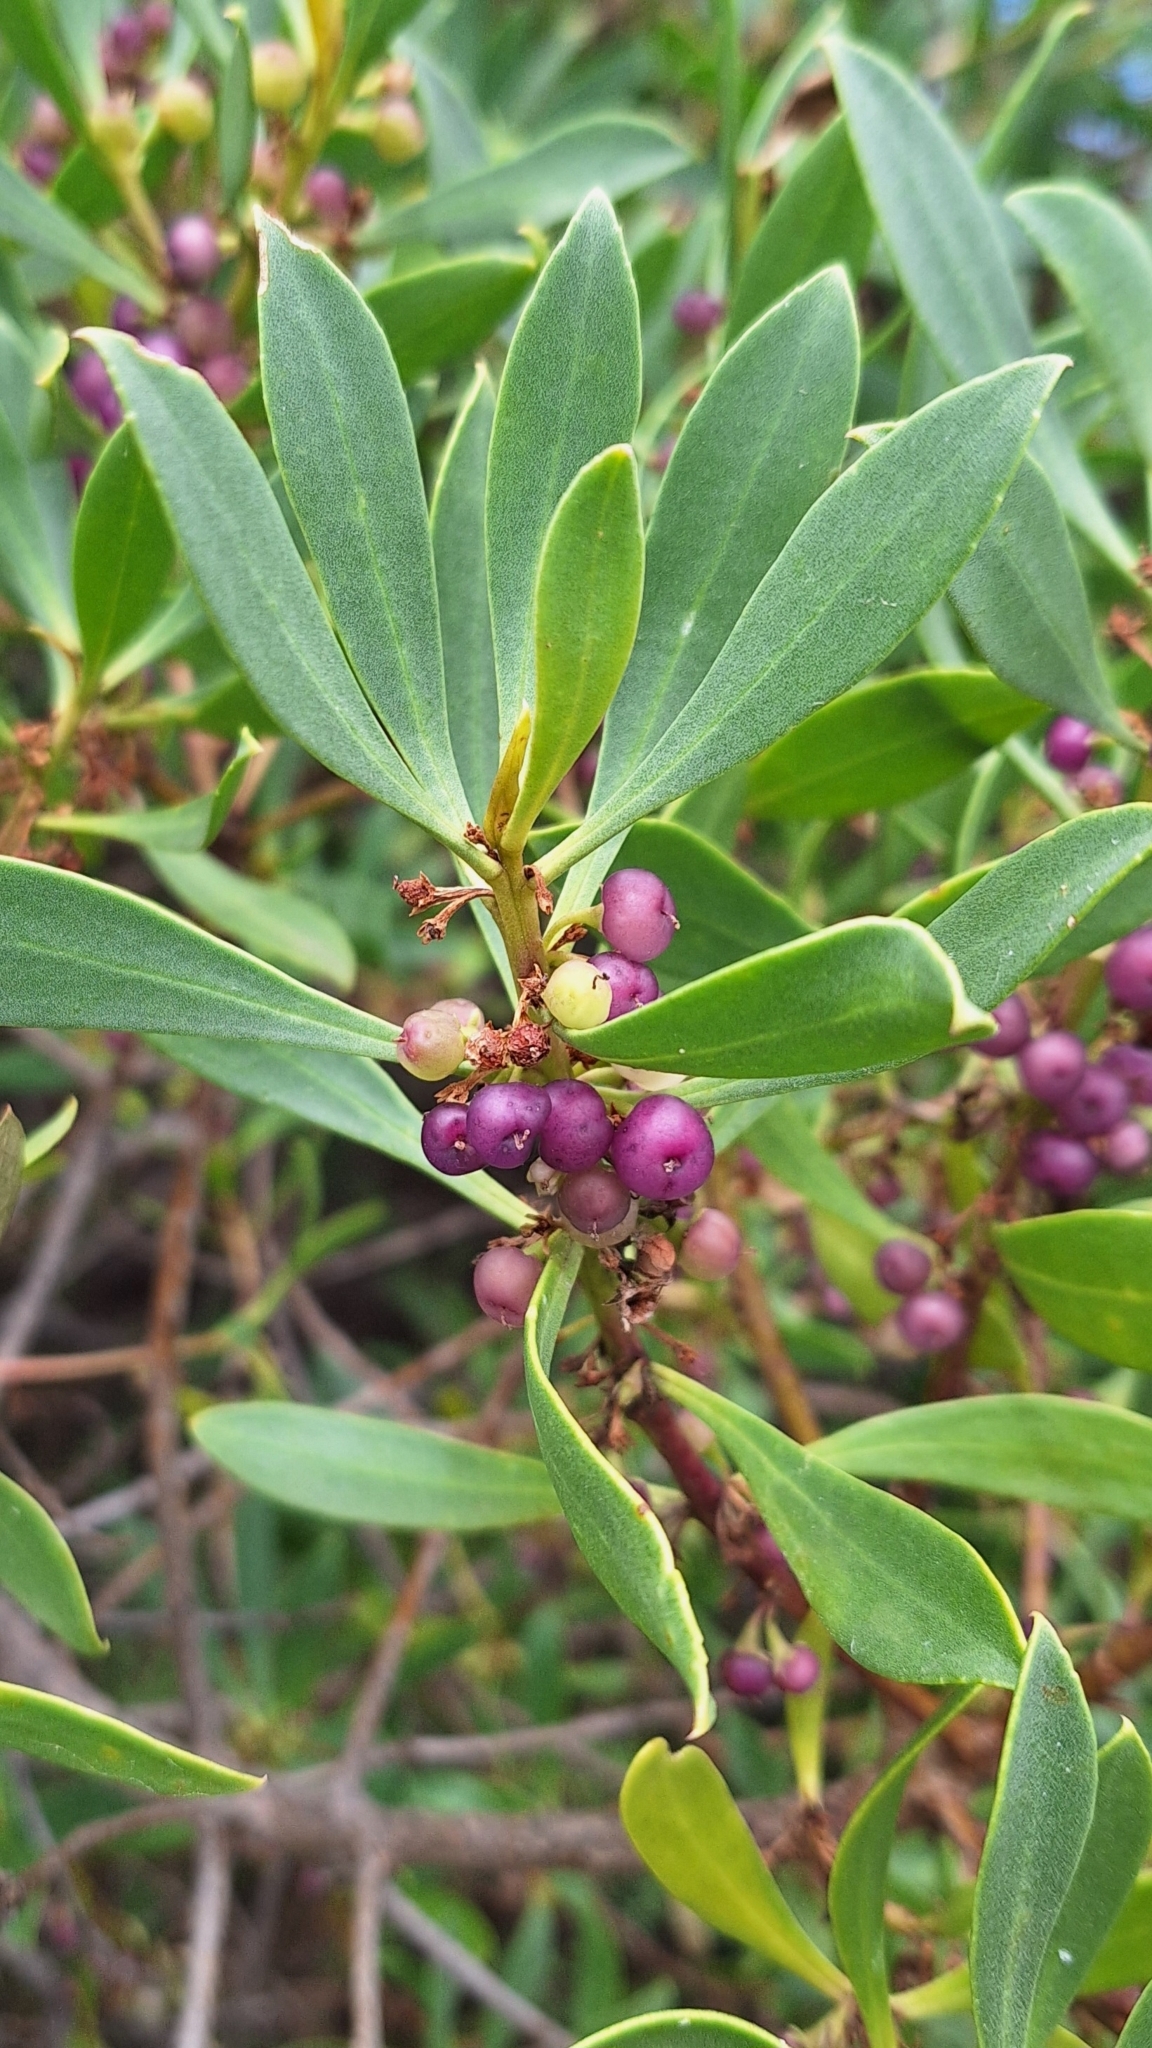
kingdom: Plantae
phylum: Tracheophyta
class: Magnoliopsida
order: Lamiales
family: Scrophulariaceae
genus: Myoporum
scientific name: Myoporum insulare
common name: Common boobialla
